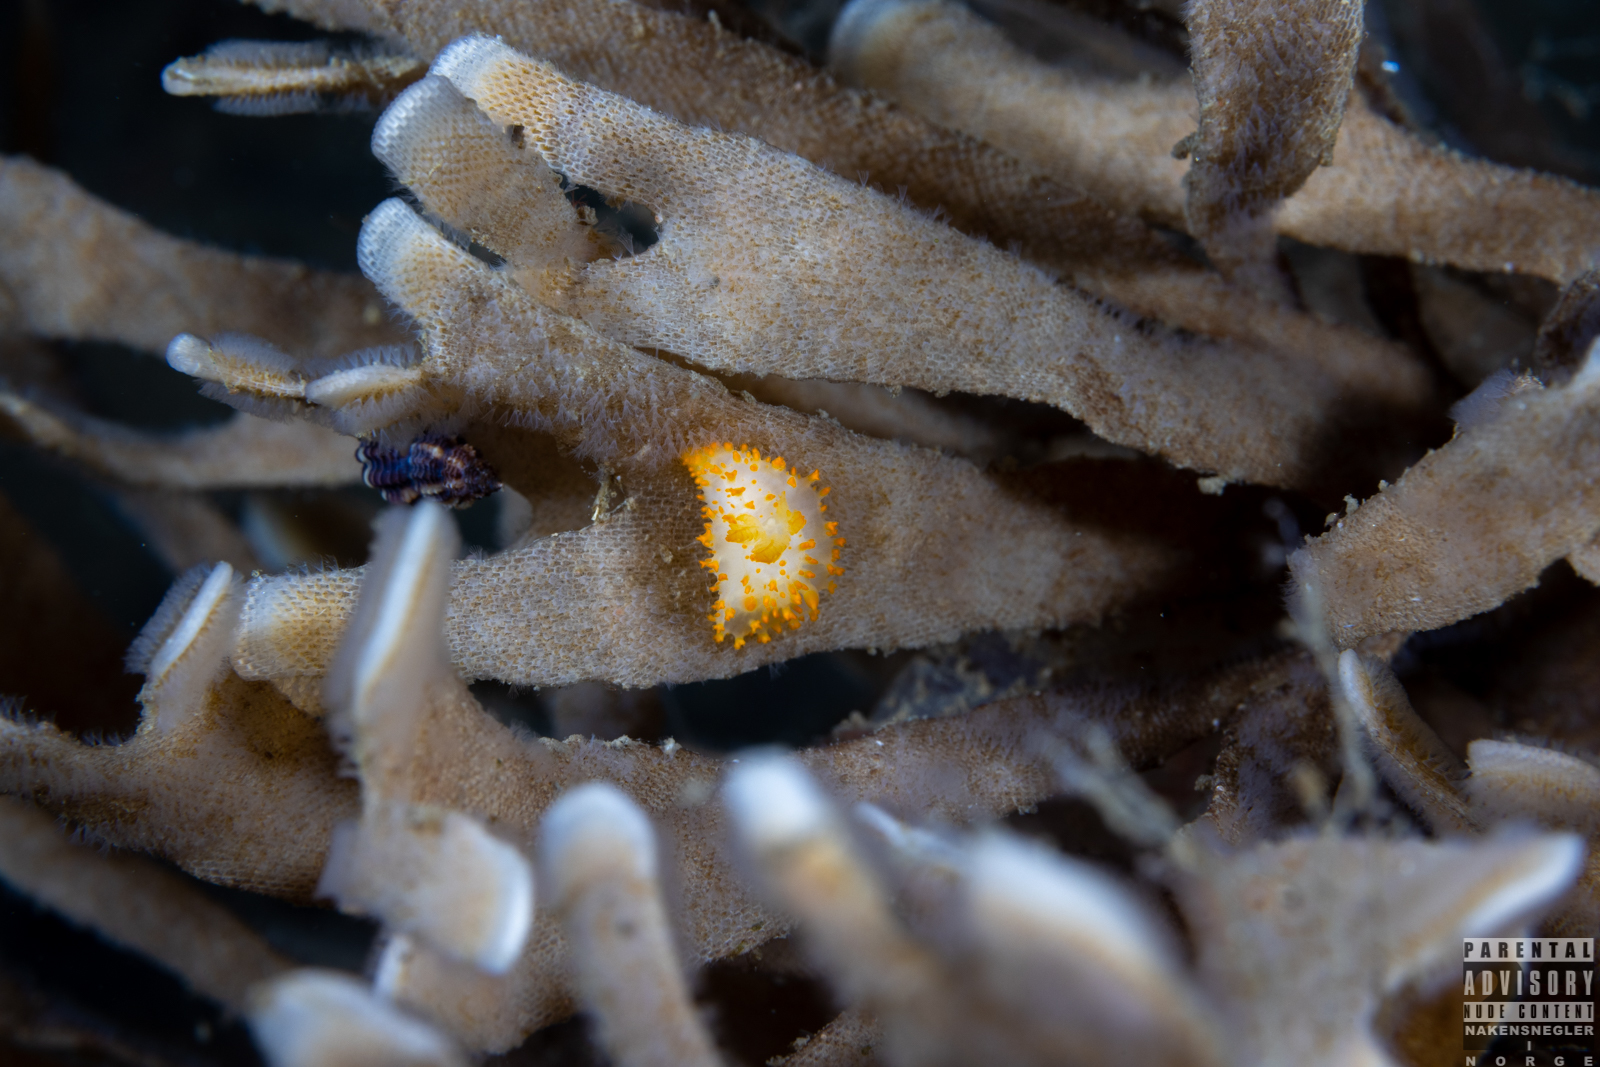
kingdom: Animalia
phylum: Mollusca
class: Gastropoda
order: Nudibranchia
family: Polyceridae
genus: Crimora
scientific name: Crimora papillata
